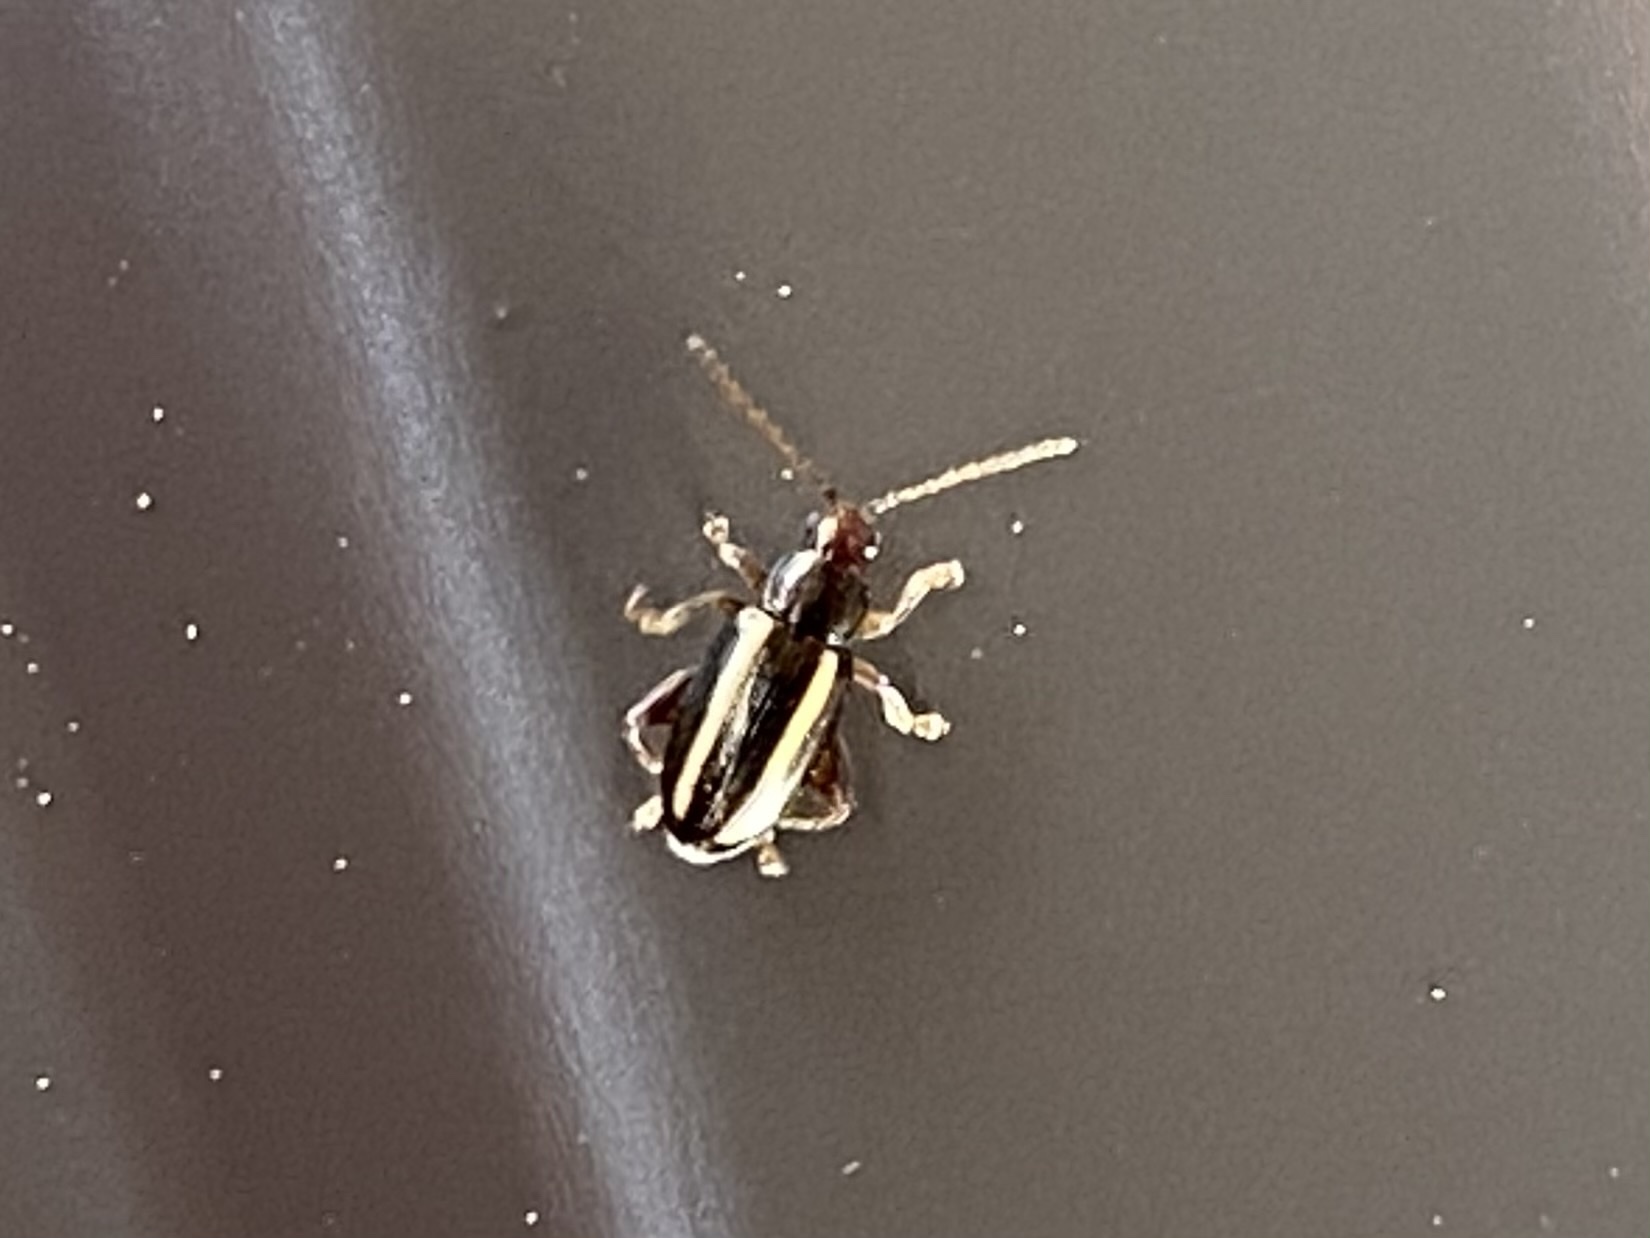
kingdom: Animalia
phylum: Arthropoda
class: Insecta
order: Coleoptera
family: Chrysomelidae
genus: Systena
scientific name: Systena elongata
